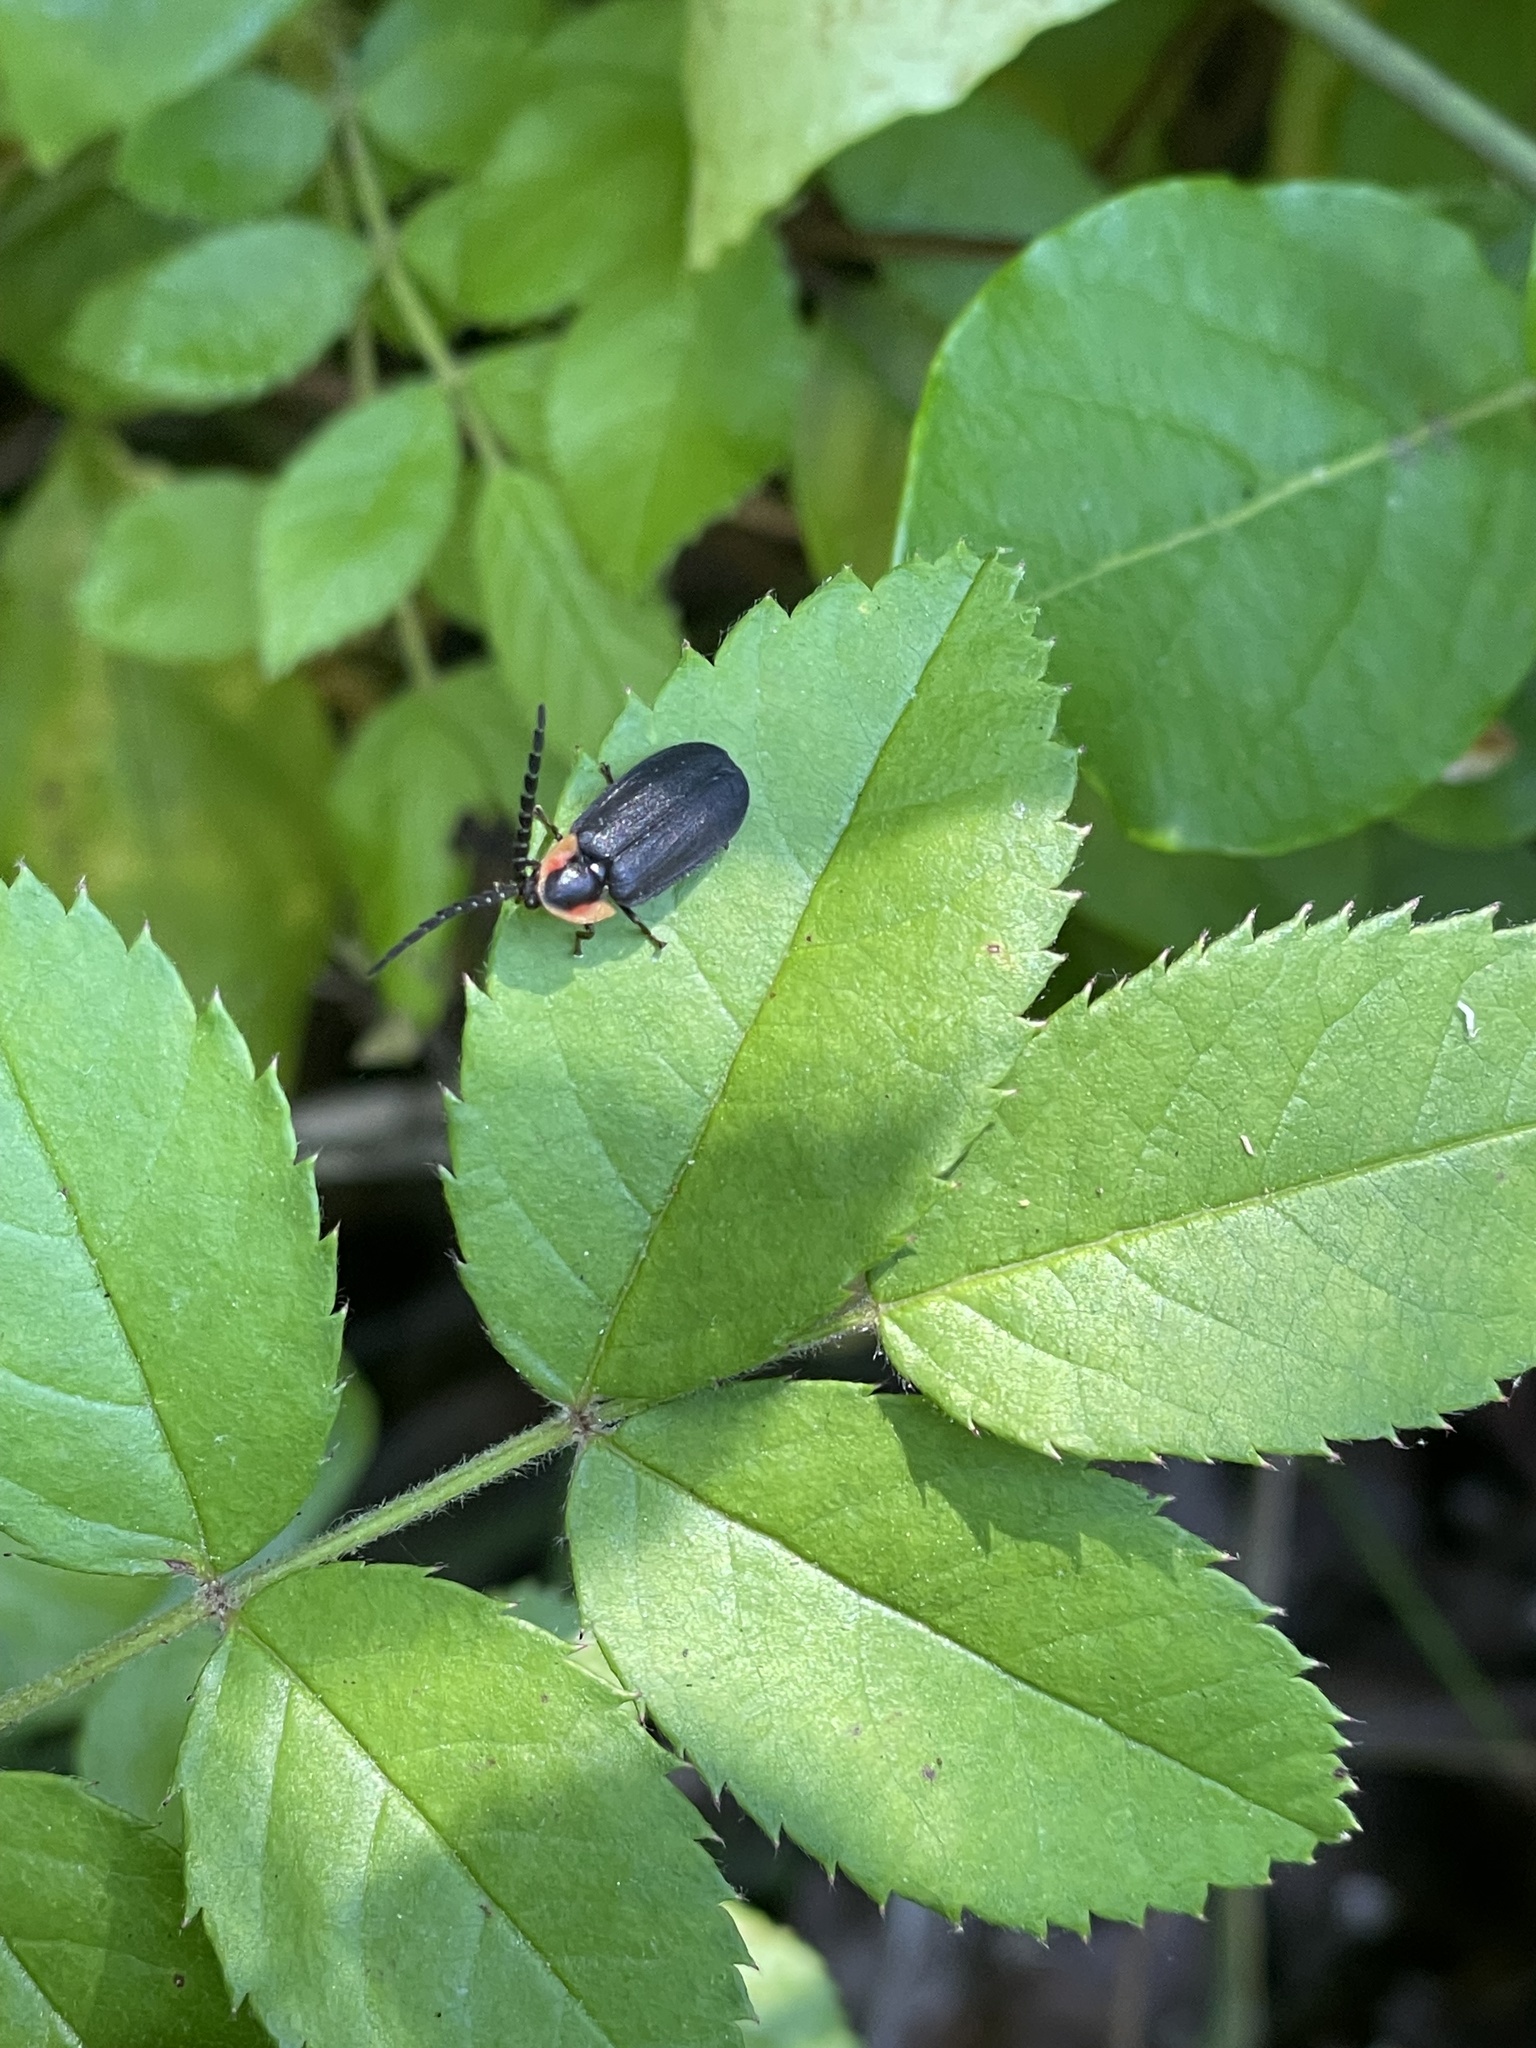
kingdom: Animalia
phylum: Arthropoda
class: Insecta
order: Coleoptera
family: Lampyridae
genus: Lucidota
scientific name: Lucidota atra
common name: Black firefly
